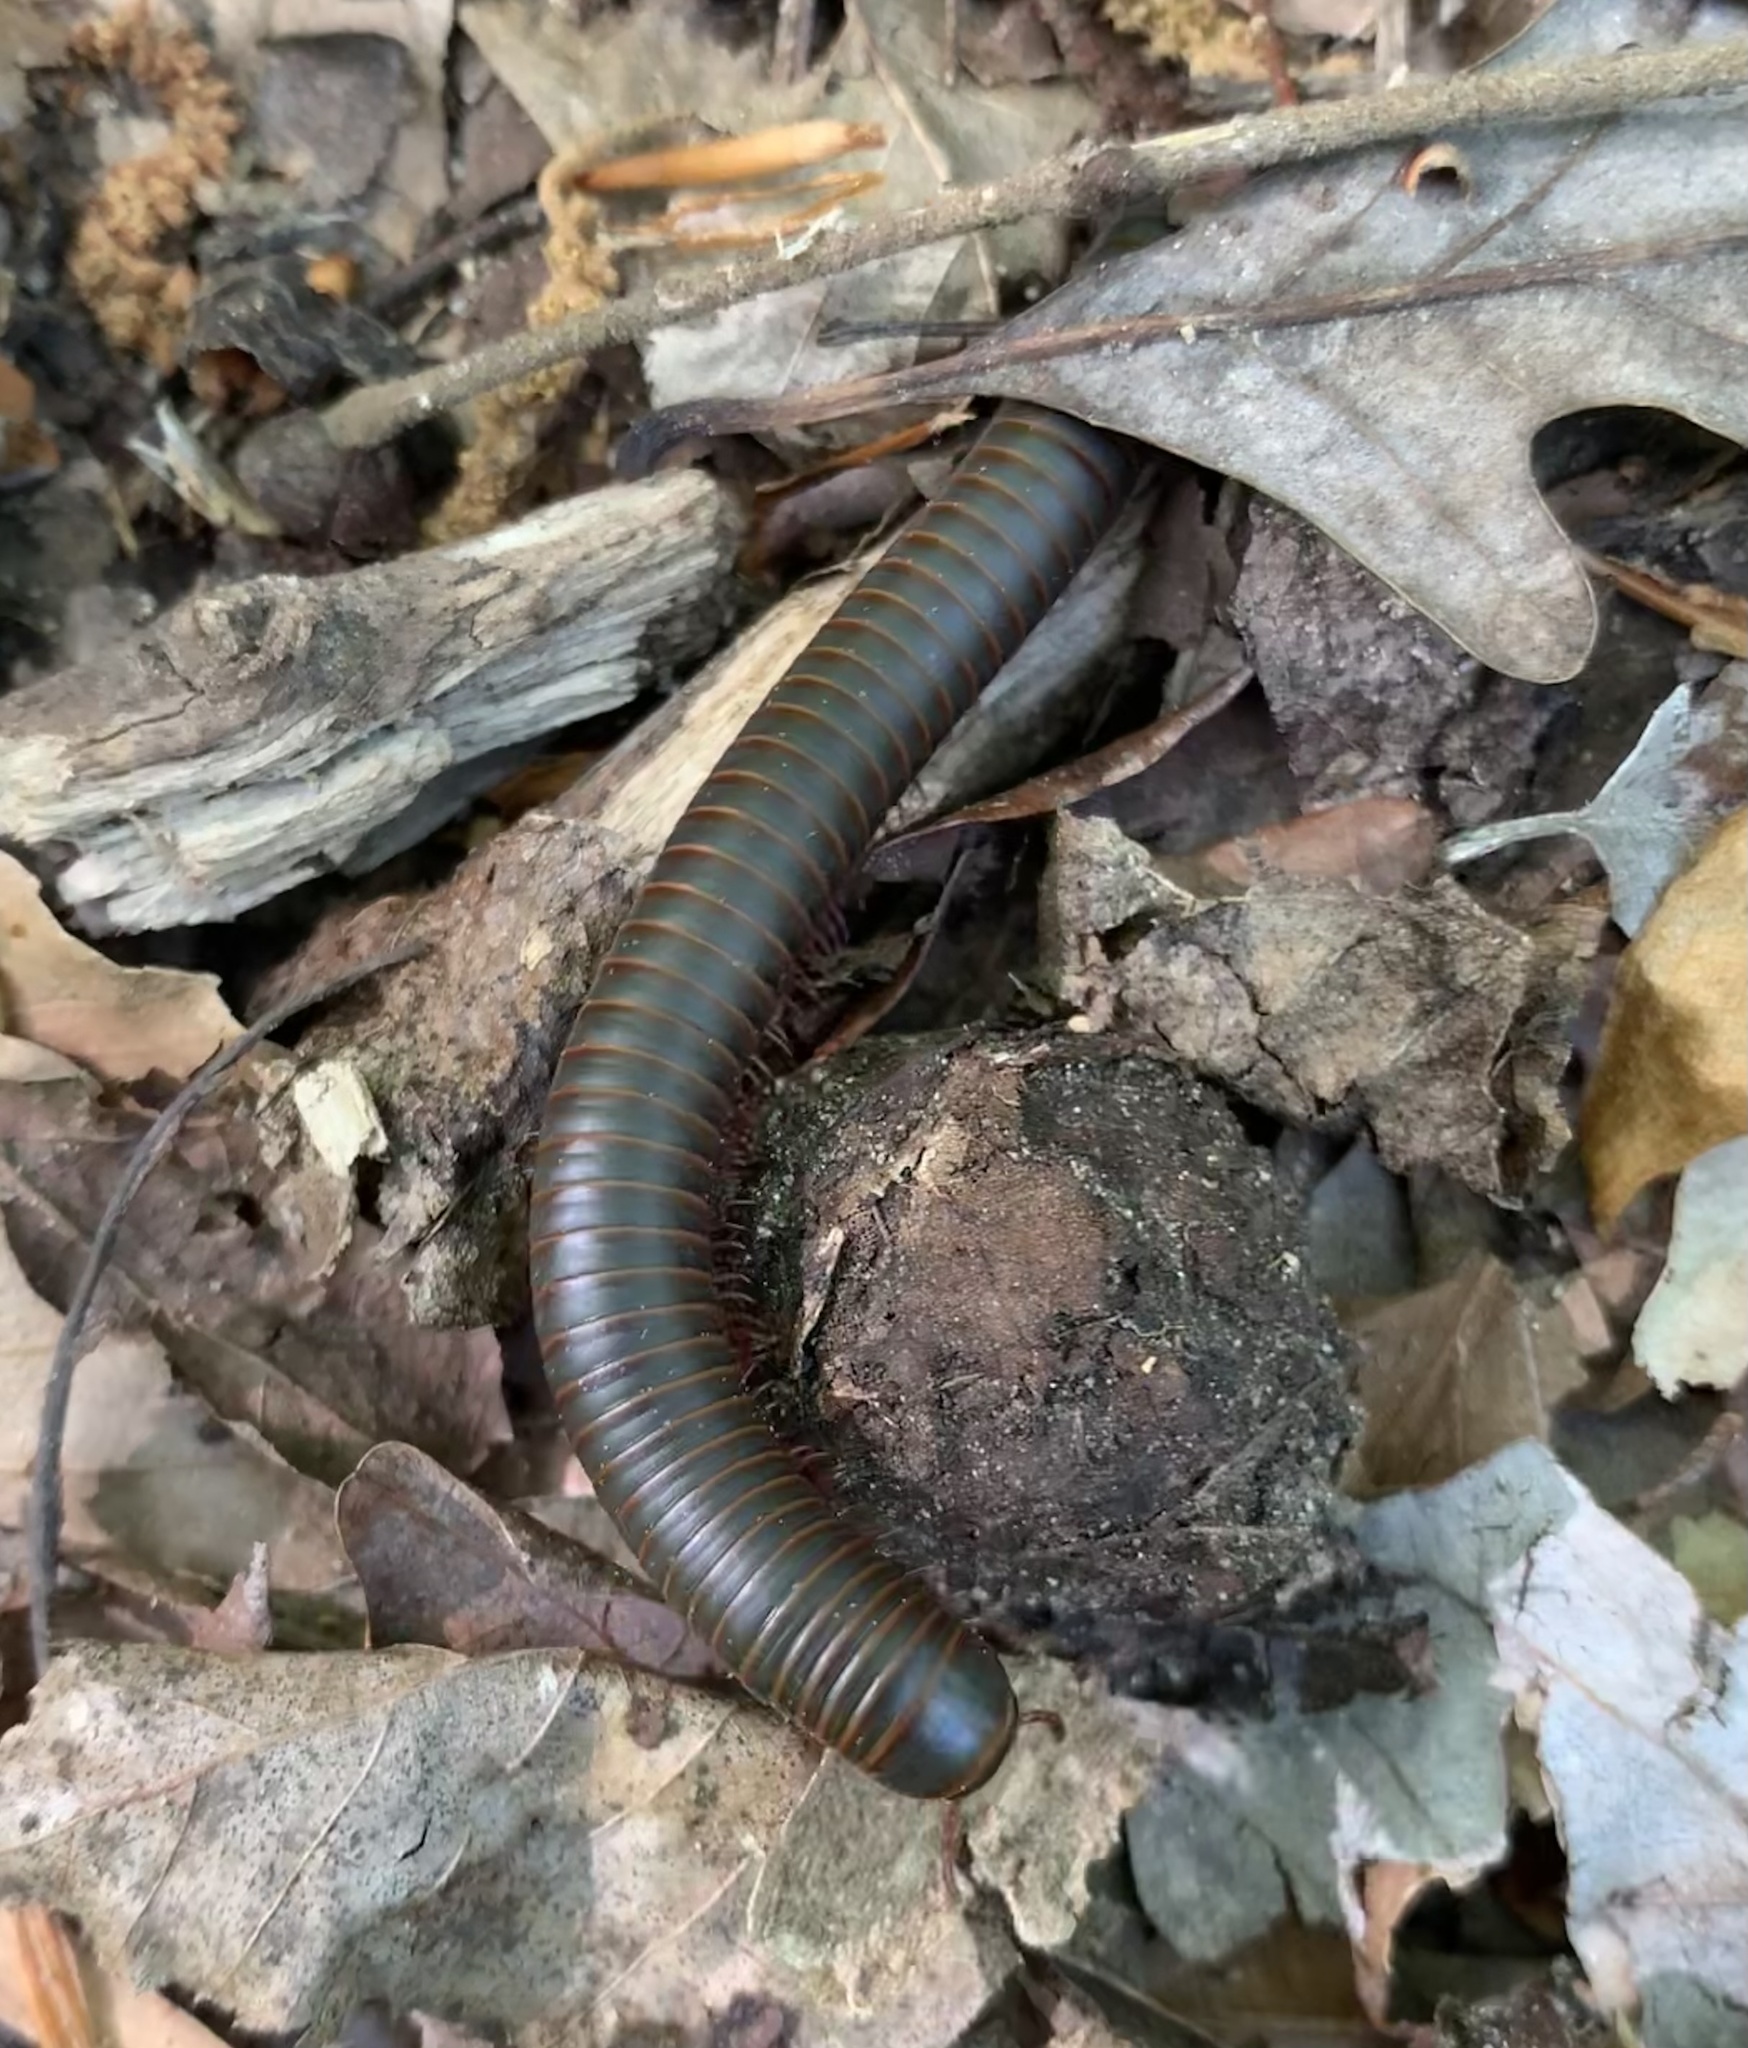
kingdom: Animalia
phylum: Arthropoda
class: Diplopoda
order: Spirobolida
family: Spirobolidae
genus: Narceus
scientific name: Narceus
